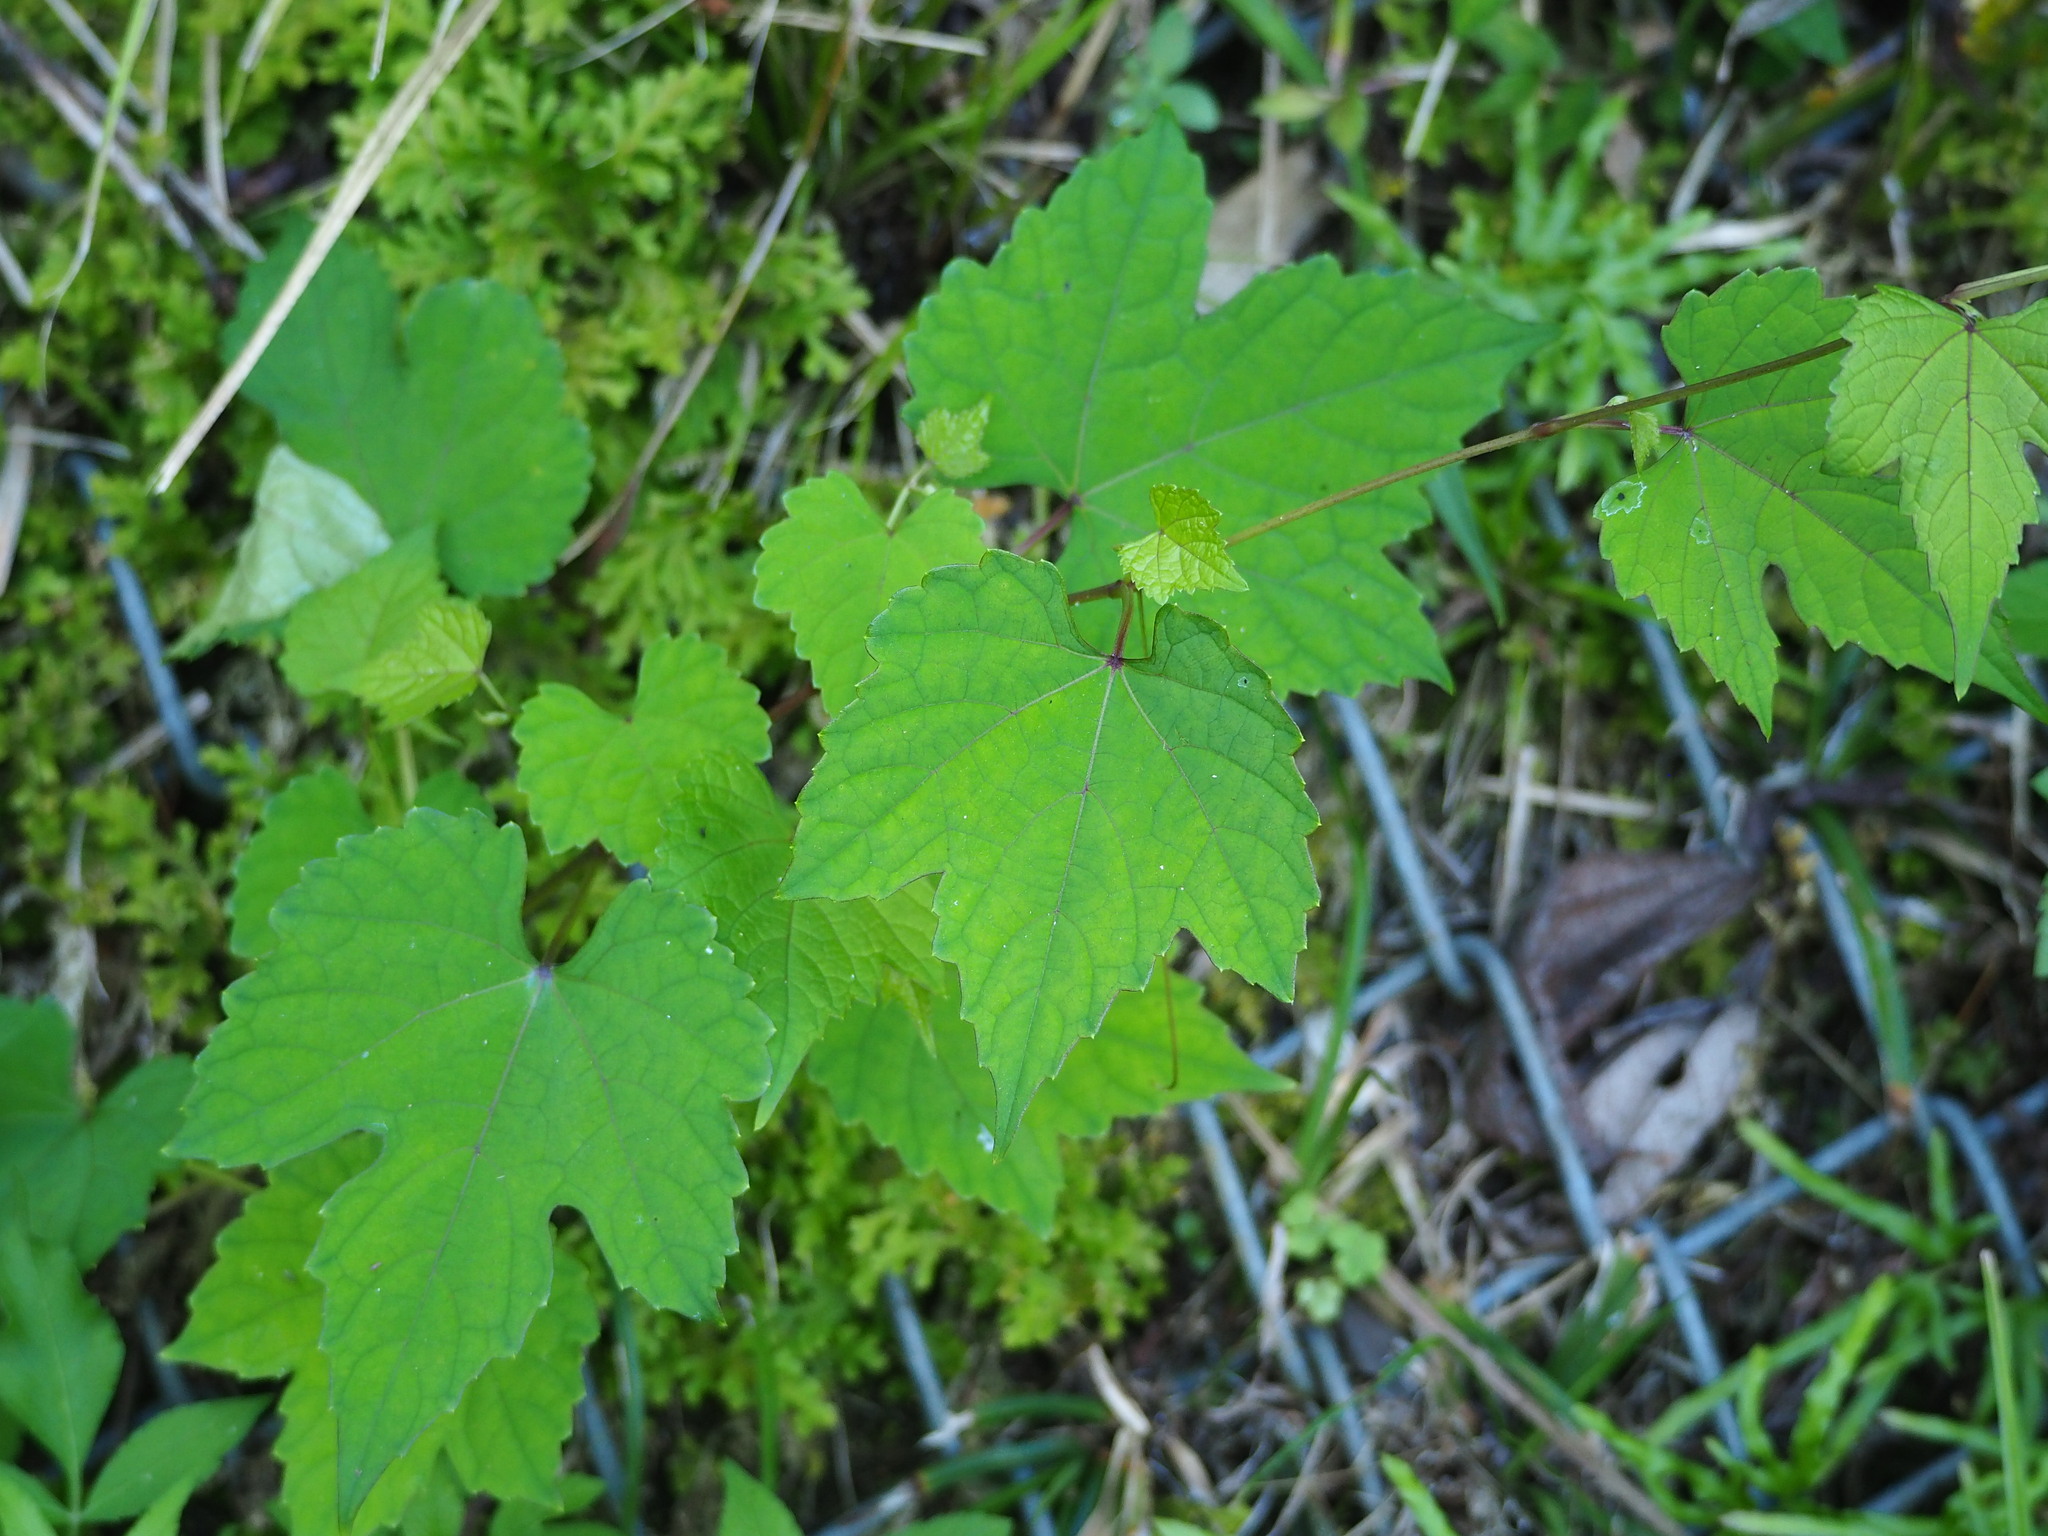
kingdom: Plantae
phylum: Tracheophyta
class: Magnoliopsida
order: Vitales
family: Vitaceae
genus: Ampelopsis
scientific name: Ampelopsis glandulosa
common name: Amur peppervine
